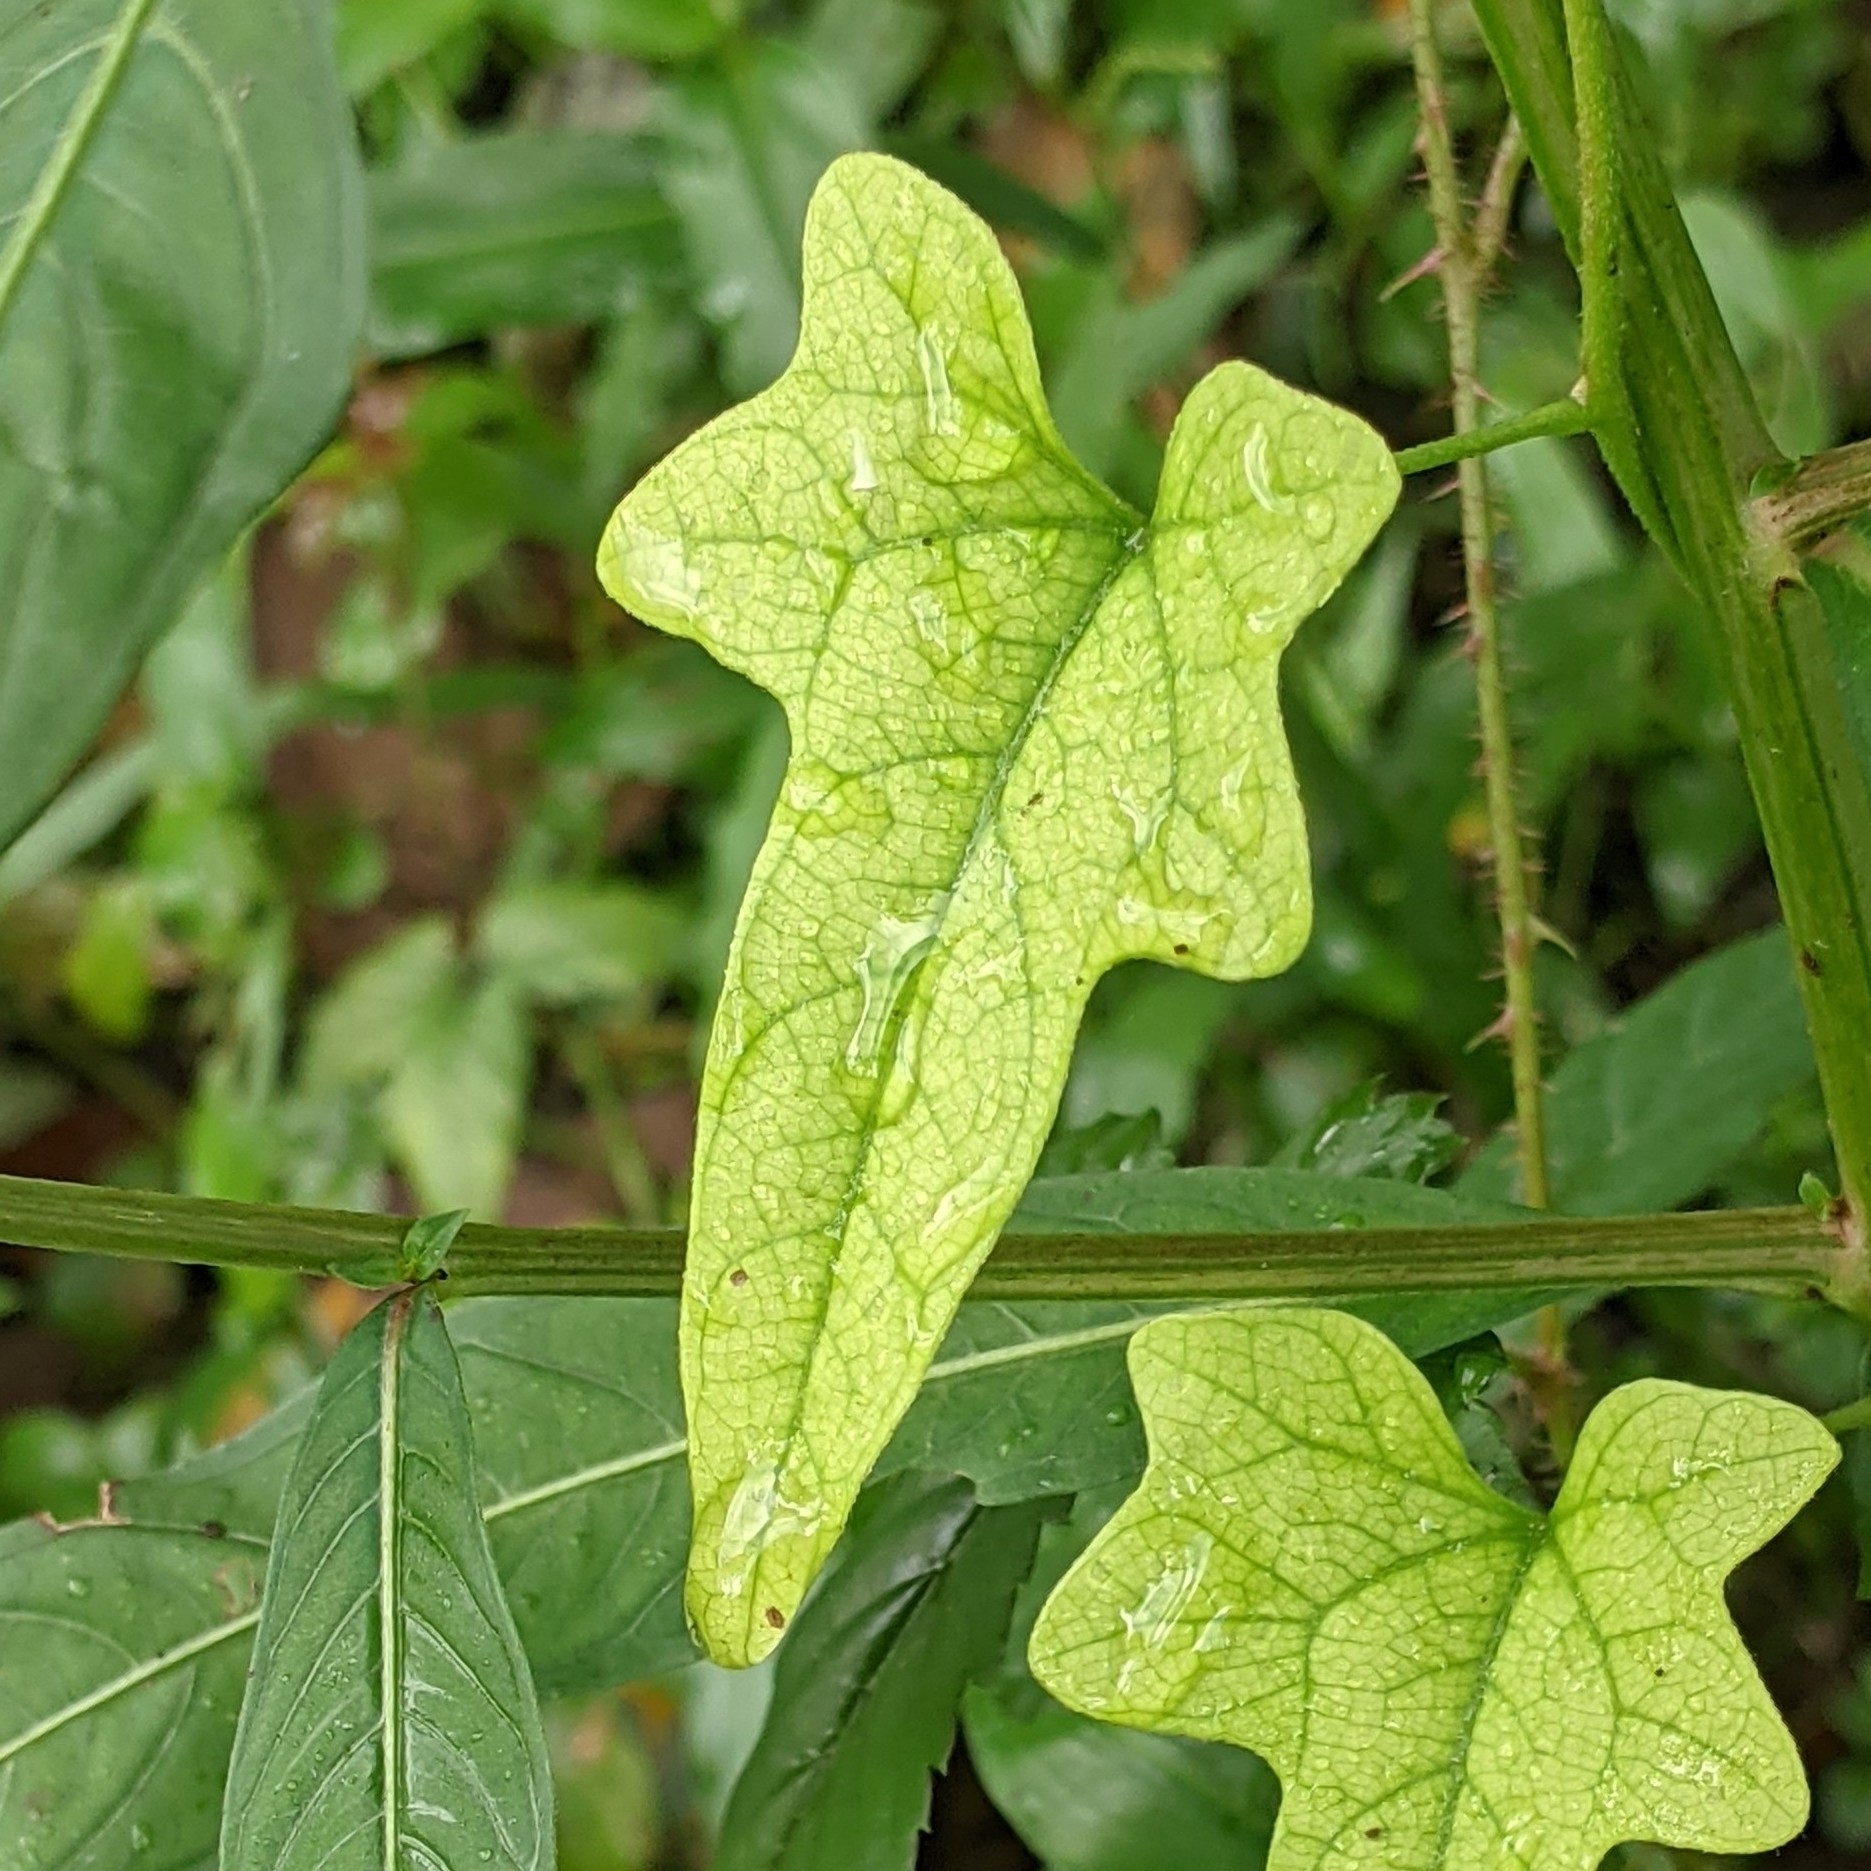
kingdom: Plantae
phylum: Tracheophyta
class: Magnoliopsida
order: Ranunculales
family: Menispermaceae
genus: Cocculus
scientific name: Cocculus carolinus
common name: Carolina moonseed
